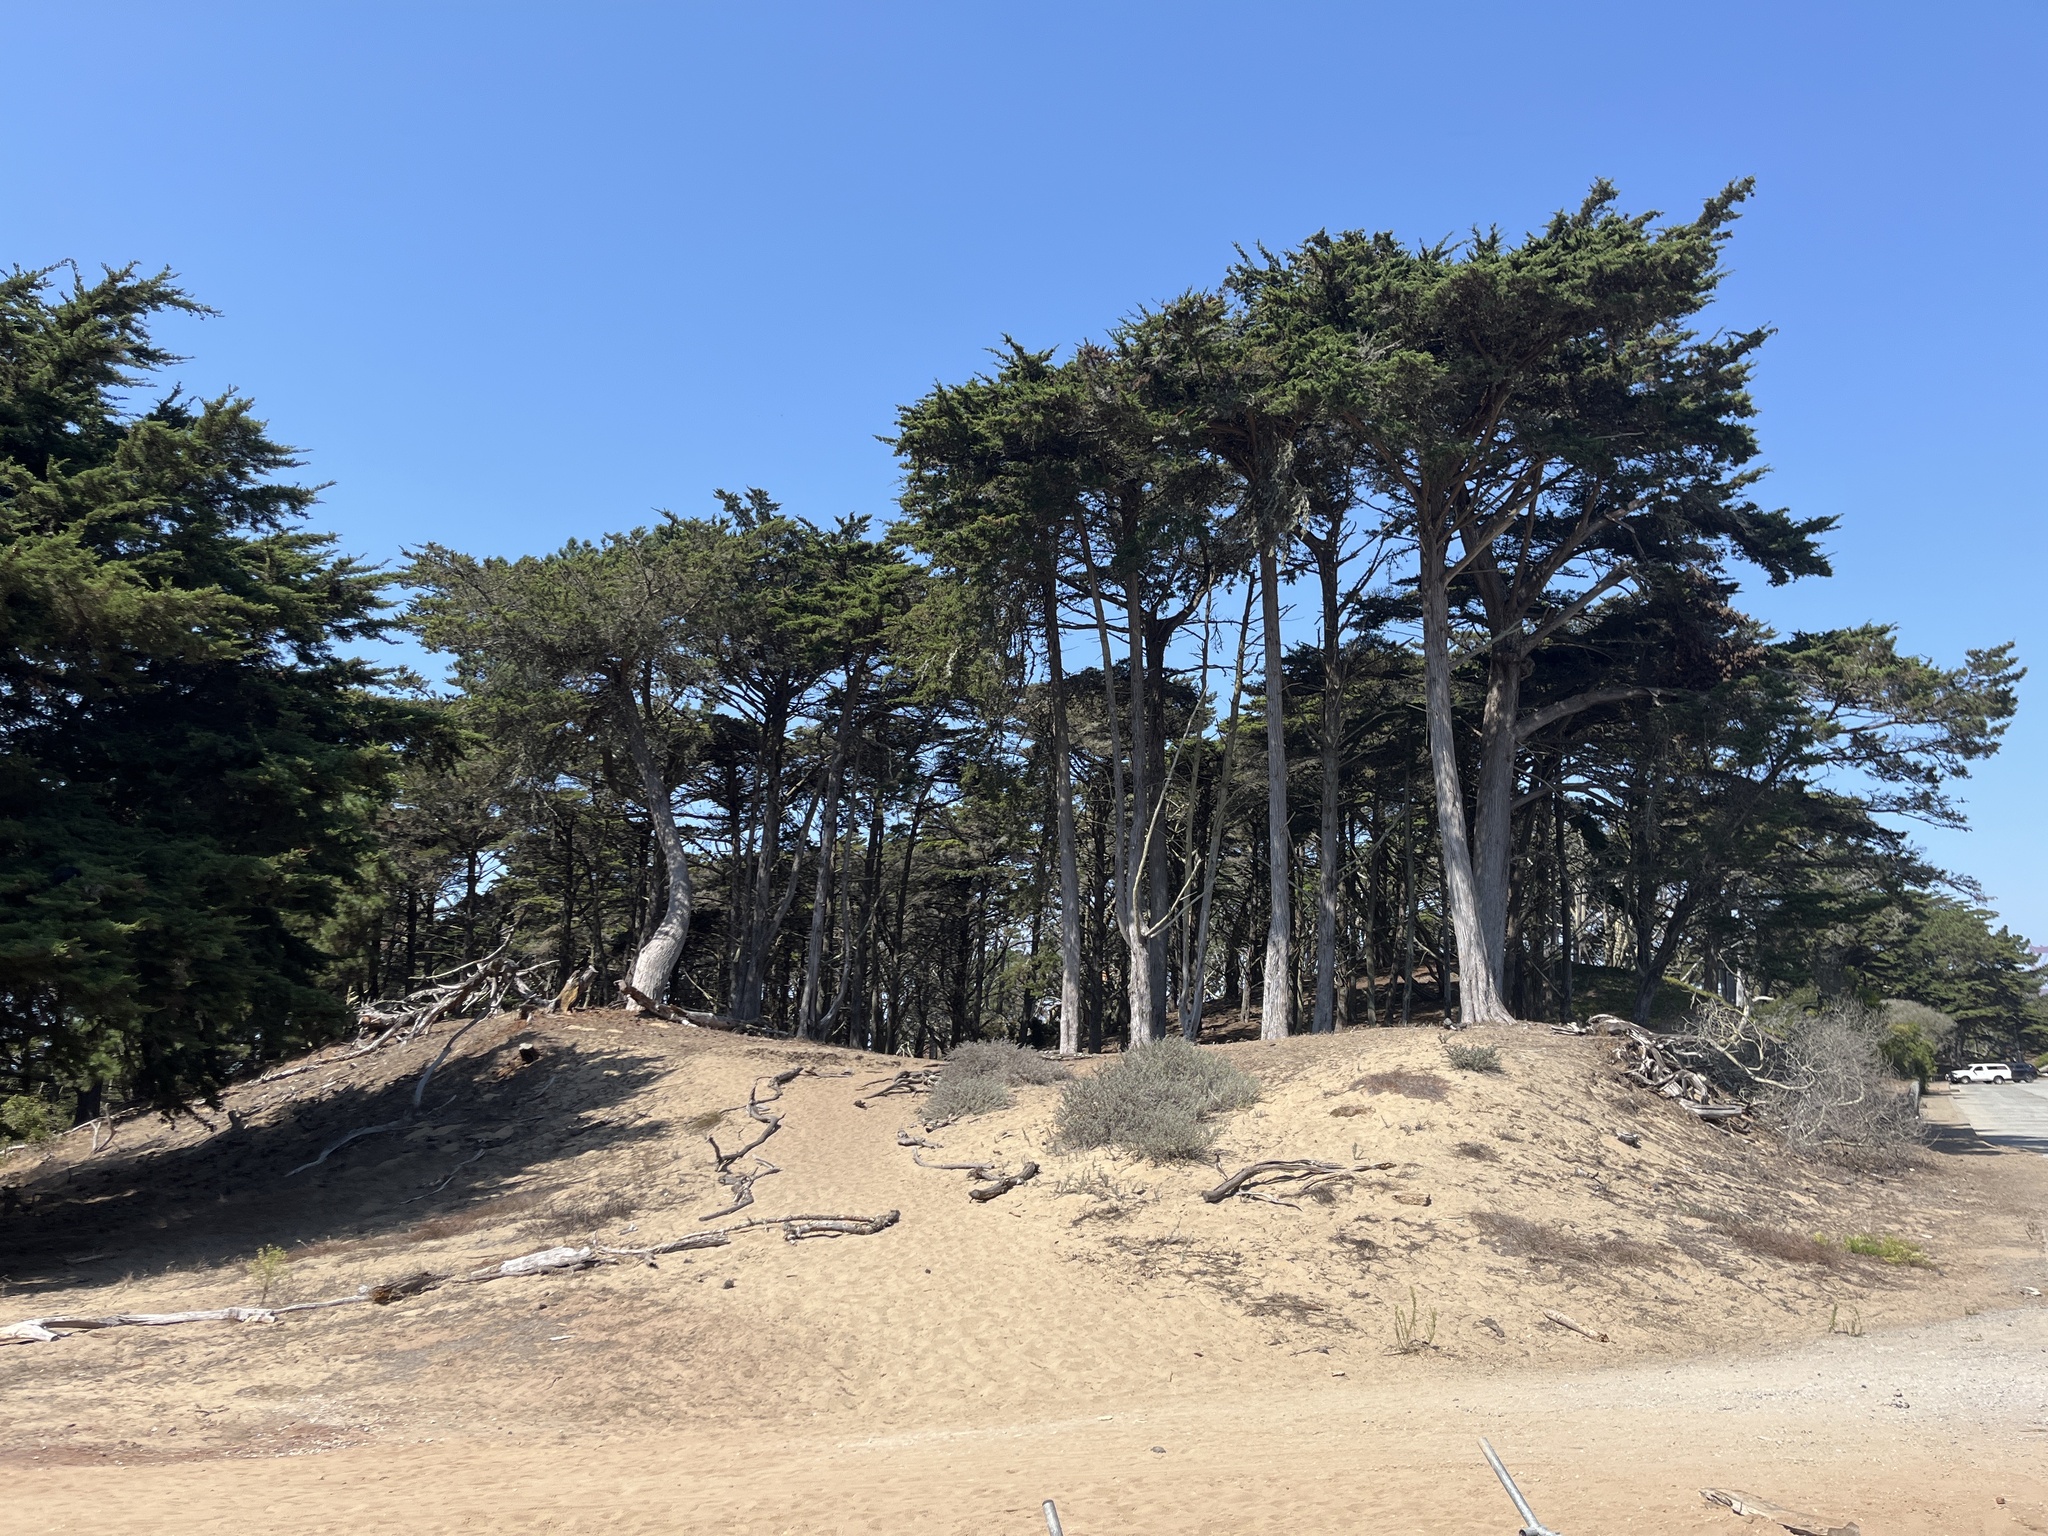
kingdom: Plantae
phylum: Tracheophyta
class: Pinopsida
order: Pinales
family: Cupressaceae
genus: Cupressus
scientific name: Cupressus macrocarpa
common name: Monterey cypress
